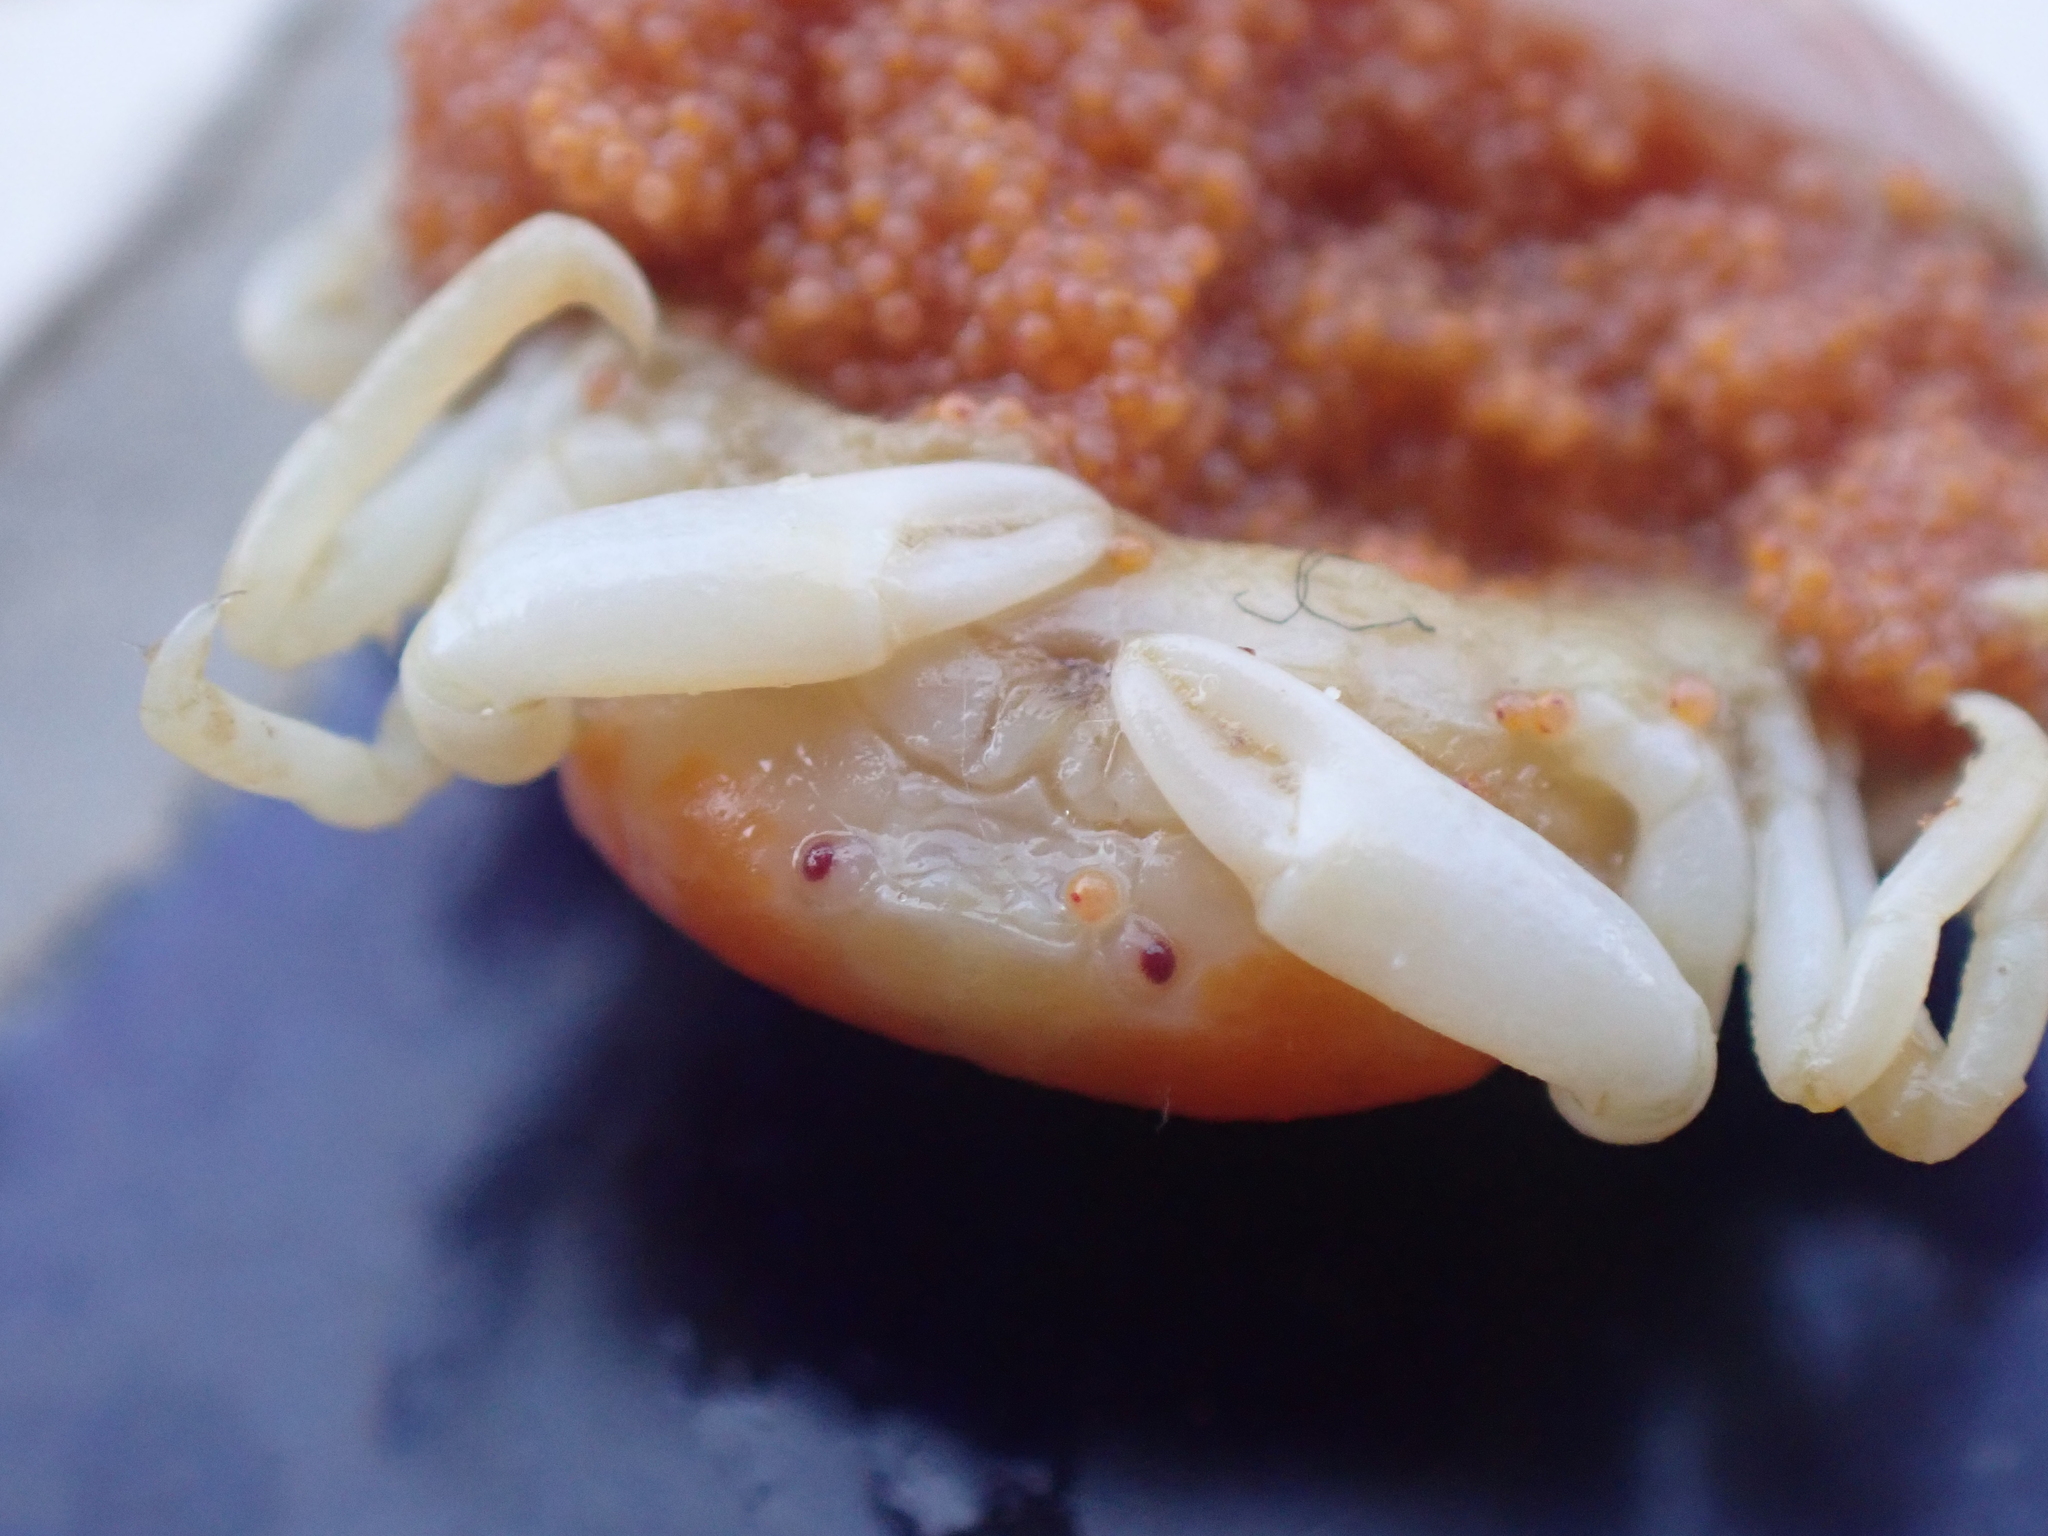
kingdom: Animalia
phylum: Arthropoda
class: Malacostraca
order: Decapoda
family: Pinnotheridae
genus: Pinnotheres
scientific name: Pinnotheres pisum
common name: Linnaeus's pea crab
